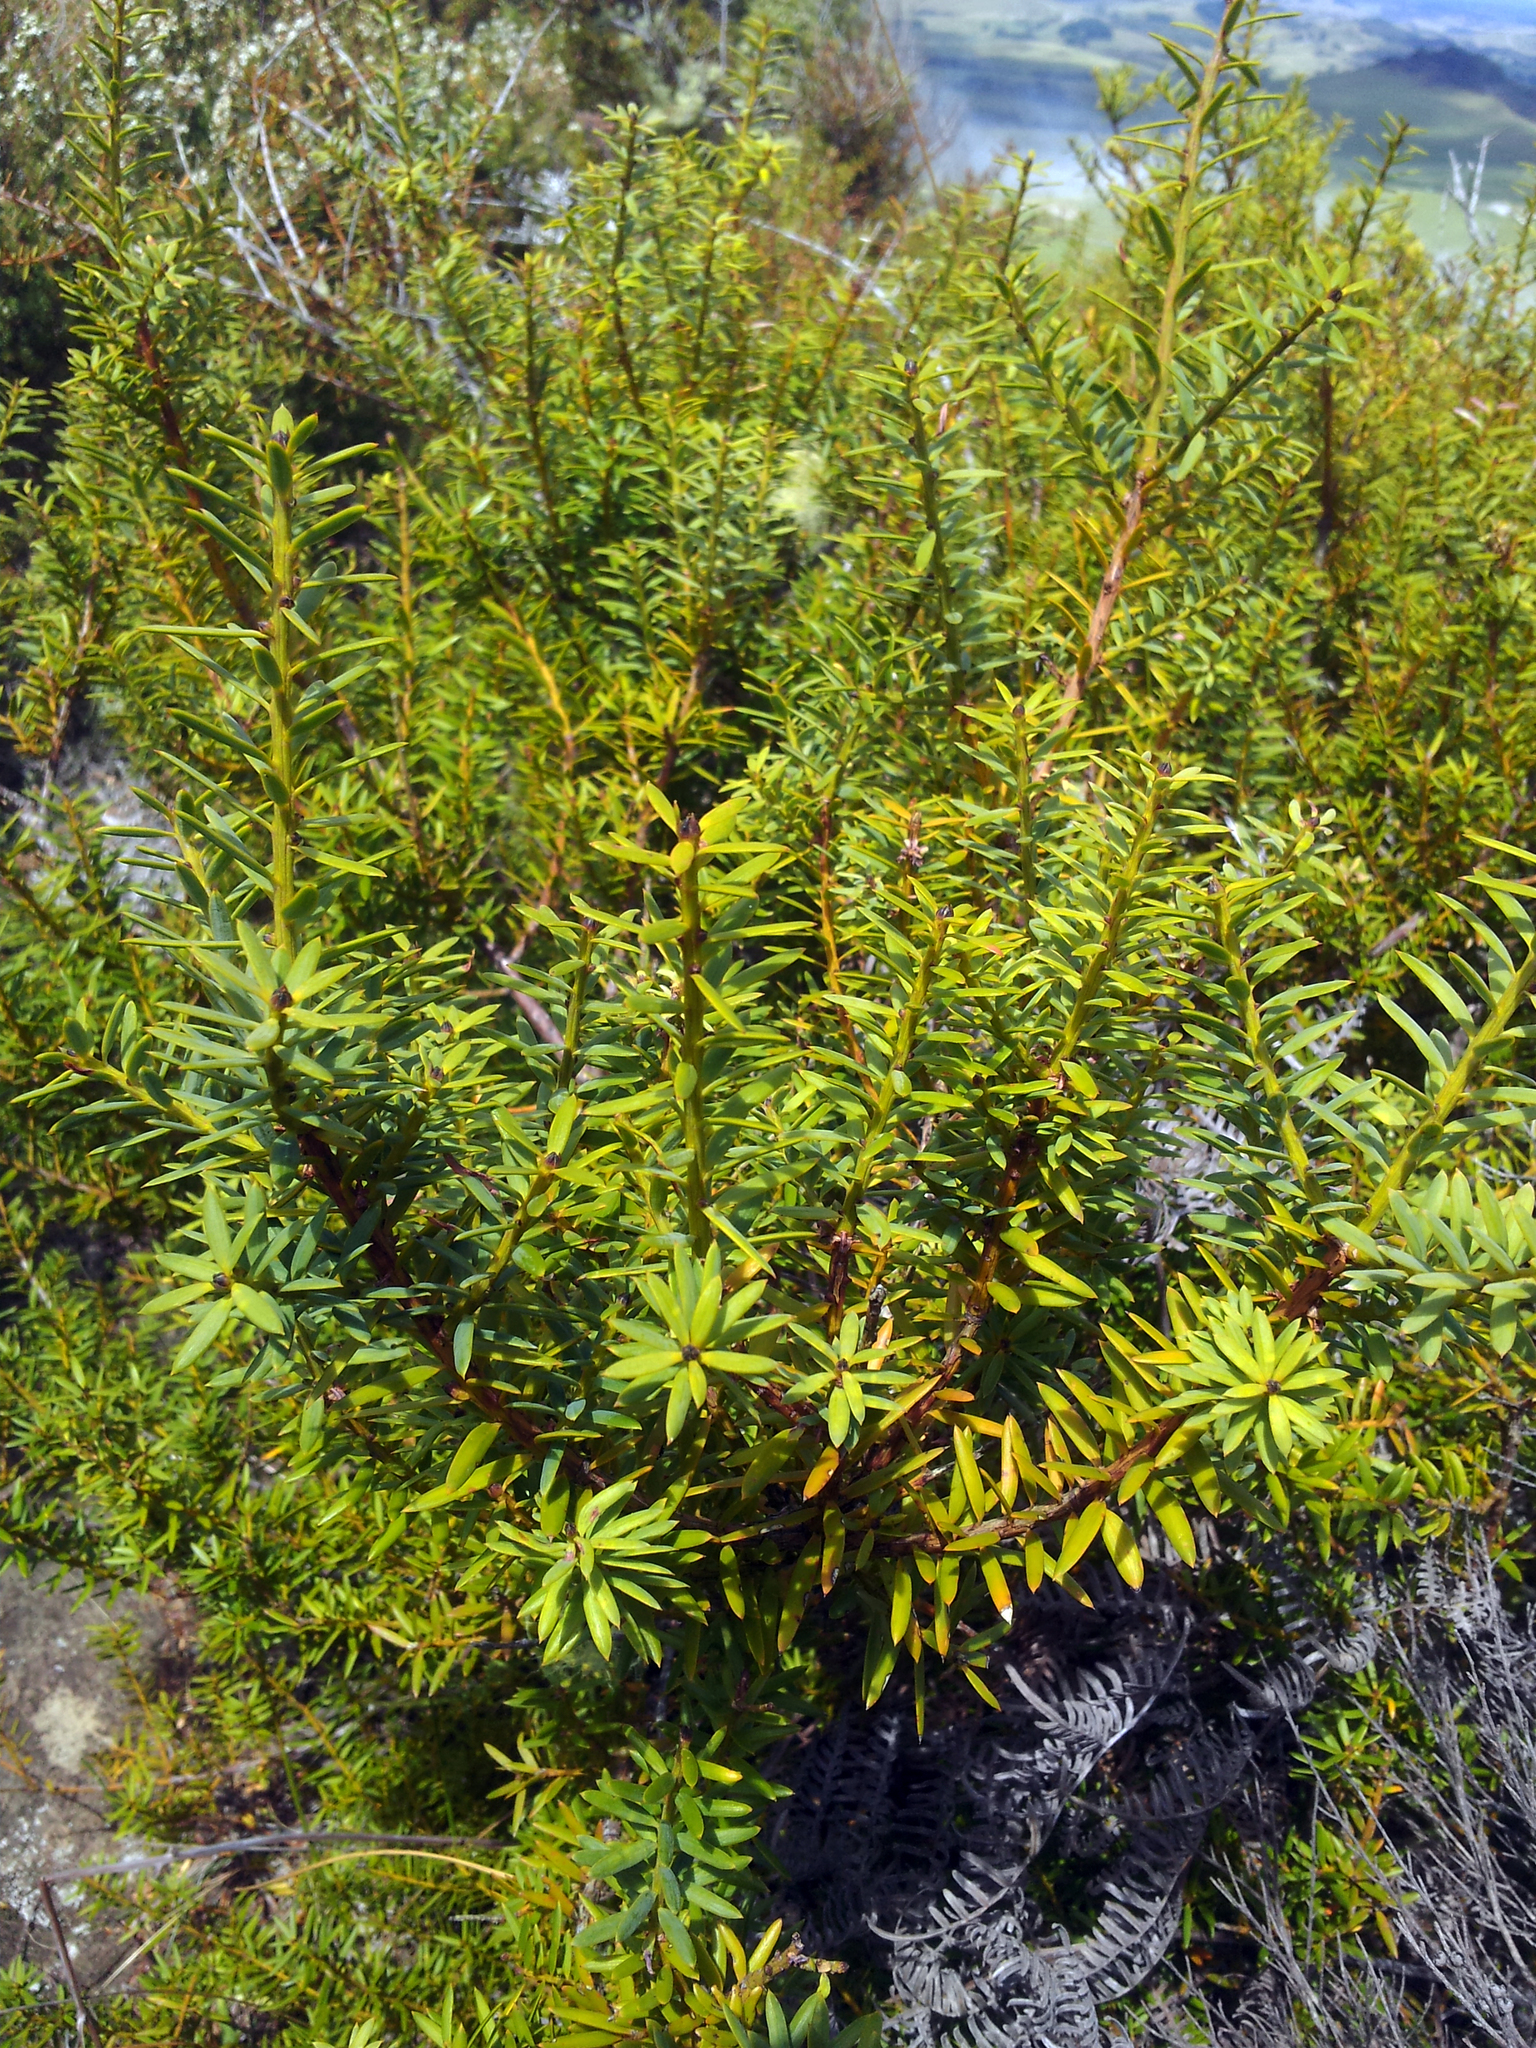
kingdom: Plantae
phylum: Tracheophyta
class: Pinopsida
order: Pinales
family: Podocarpaceae
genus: Podocarpus
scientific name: Podocarpus totara
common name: Totara
